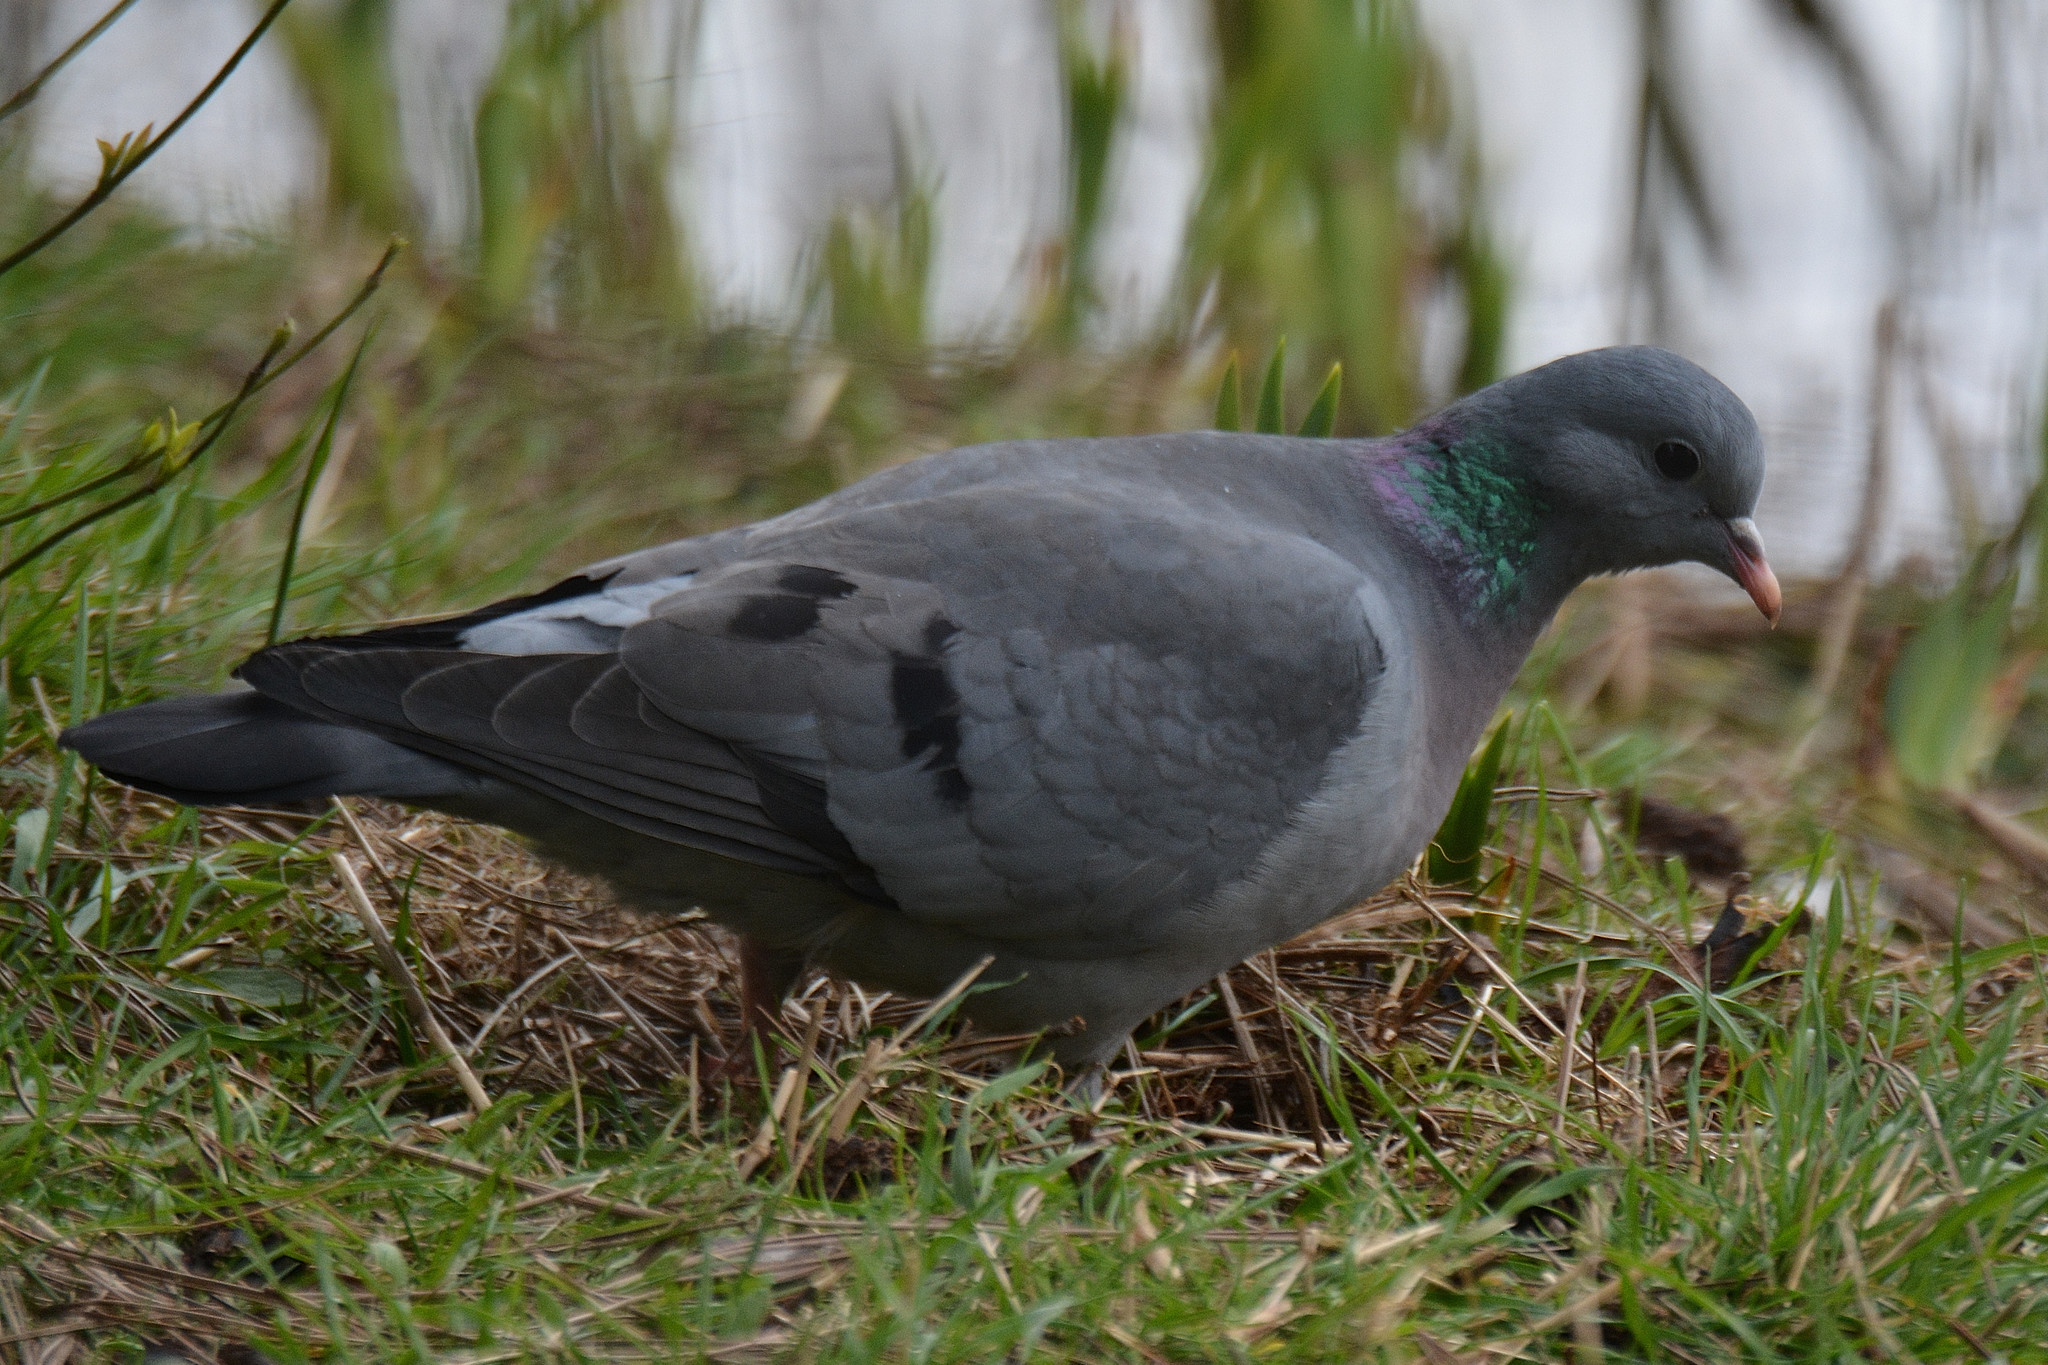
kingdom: Animalia
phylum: Chordata
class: Aves
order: Columbiformes
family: Columbidae
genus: Columba
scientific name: Columba oenas
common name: Stock dove
